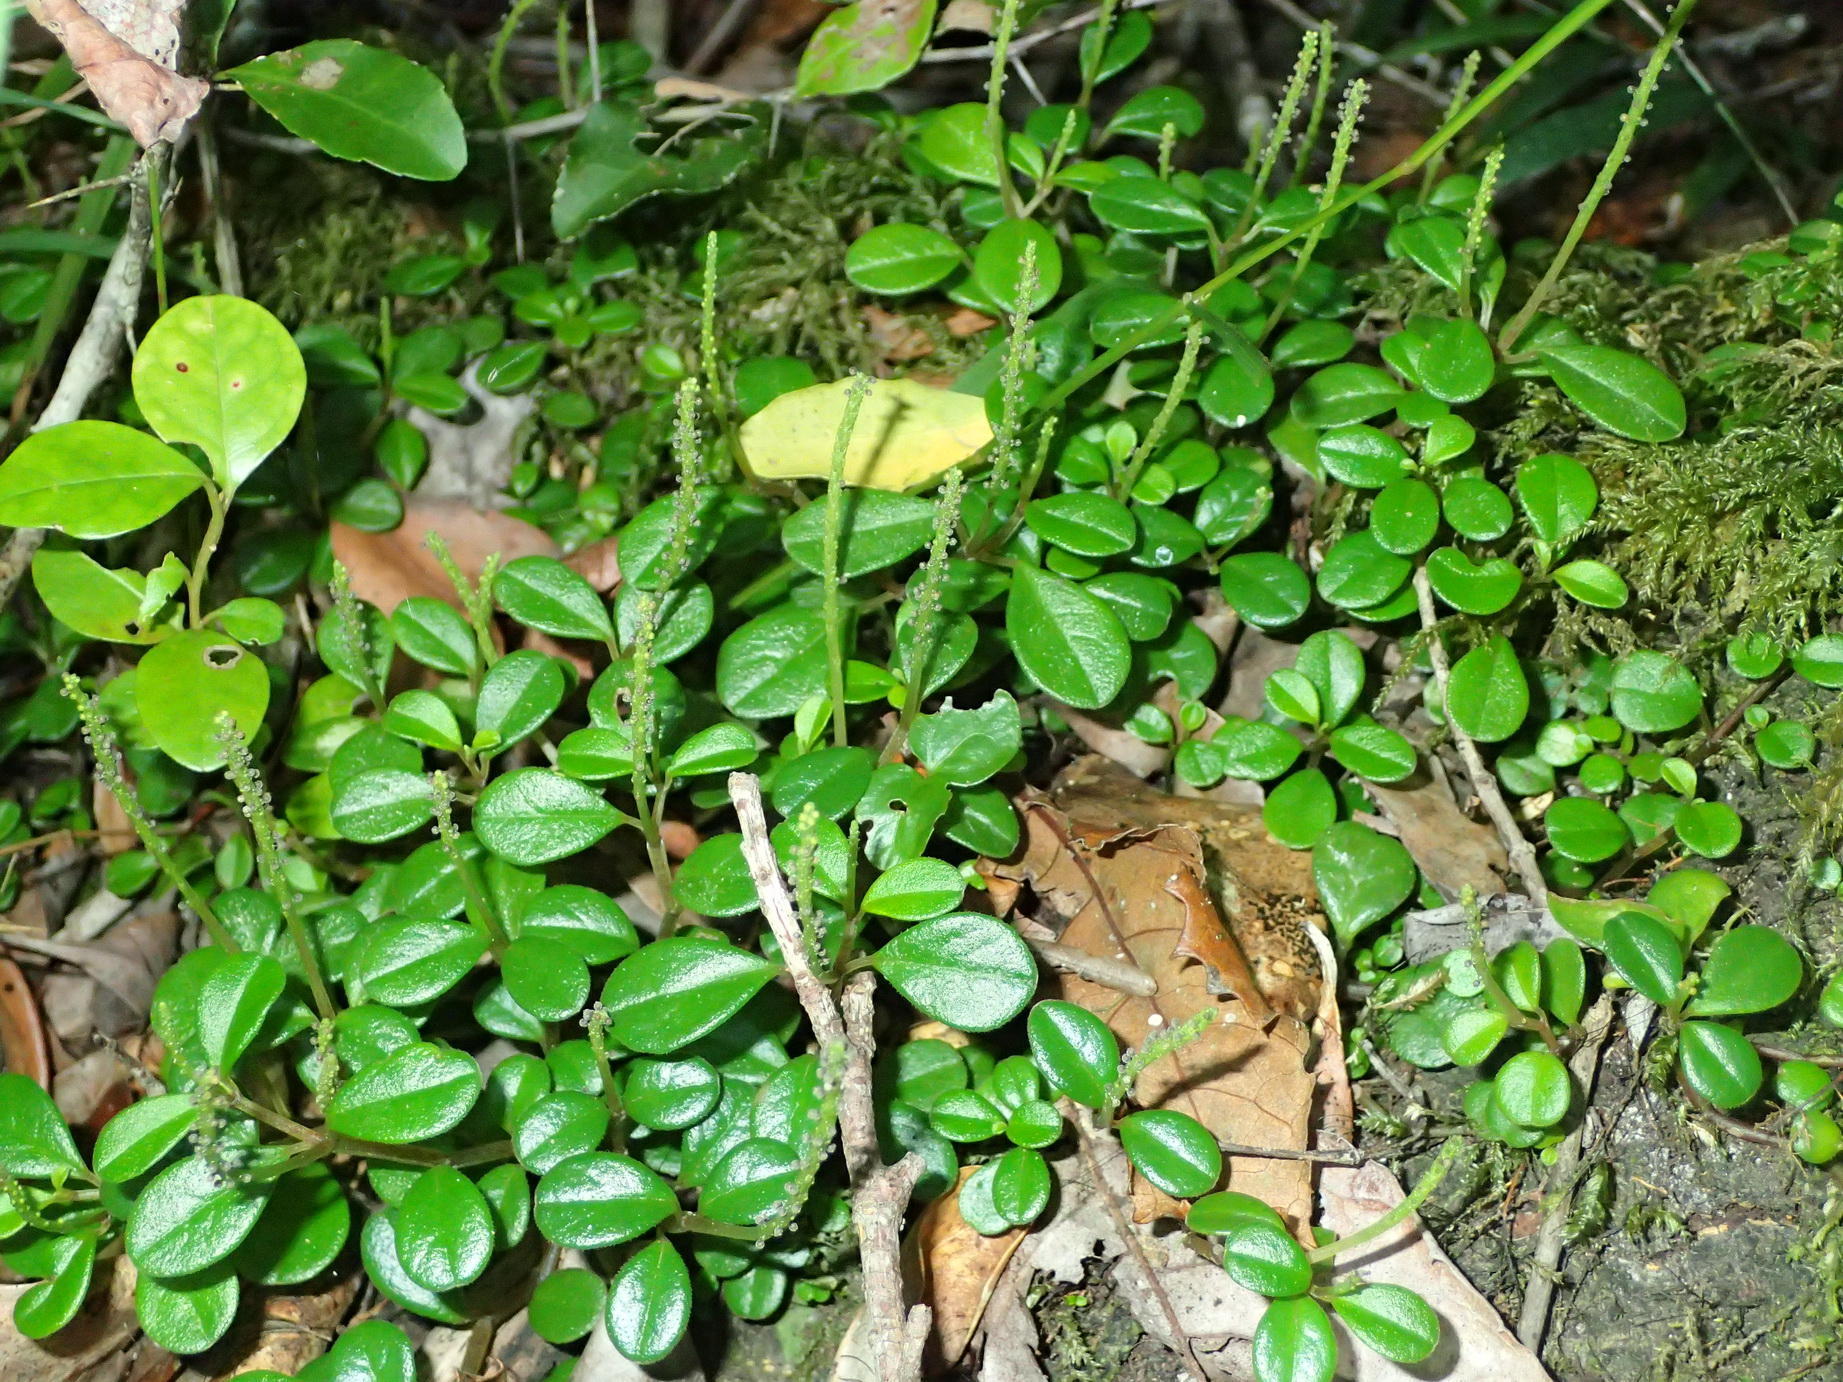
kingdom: Plantae
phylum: Tracheophyta
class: Magnoliopsida
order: Piperales
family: Piperaceae
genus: Peperomia
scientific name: Peperomia retusa
